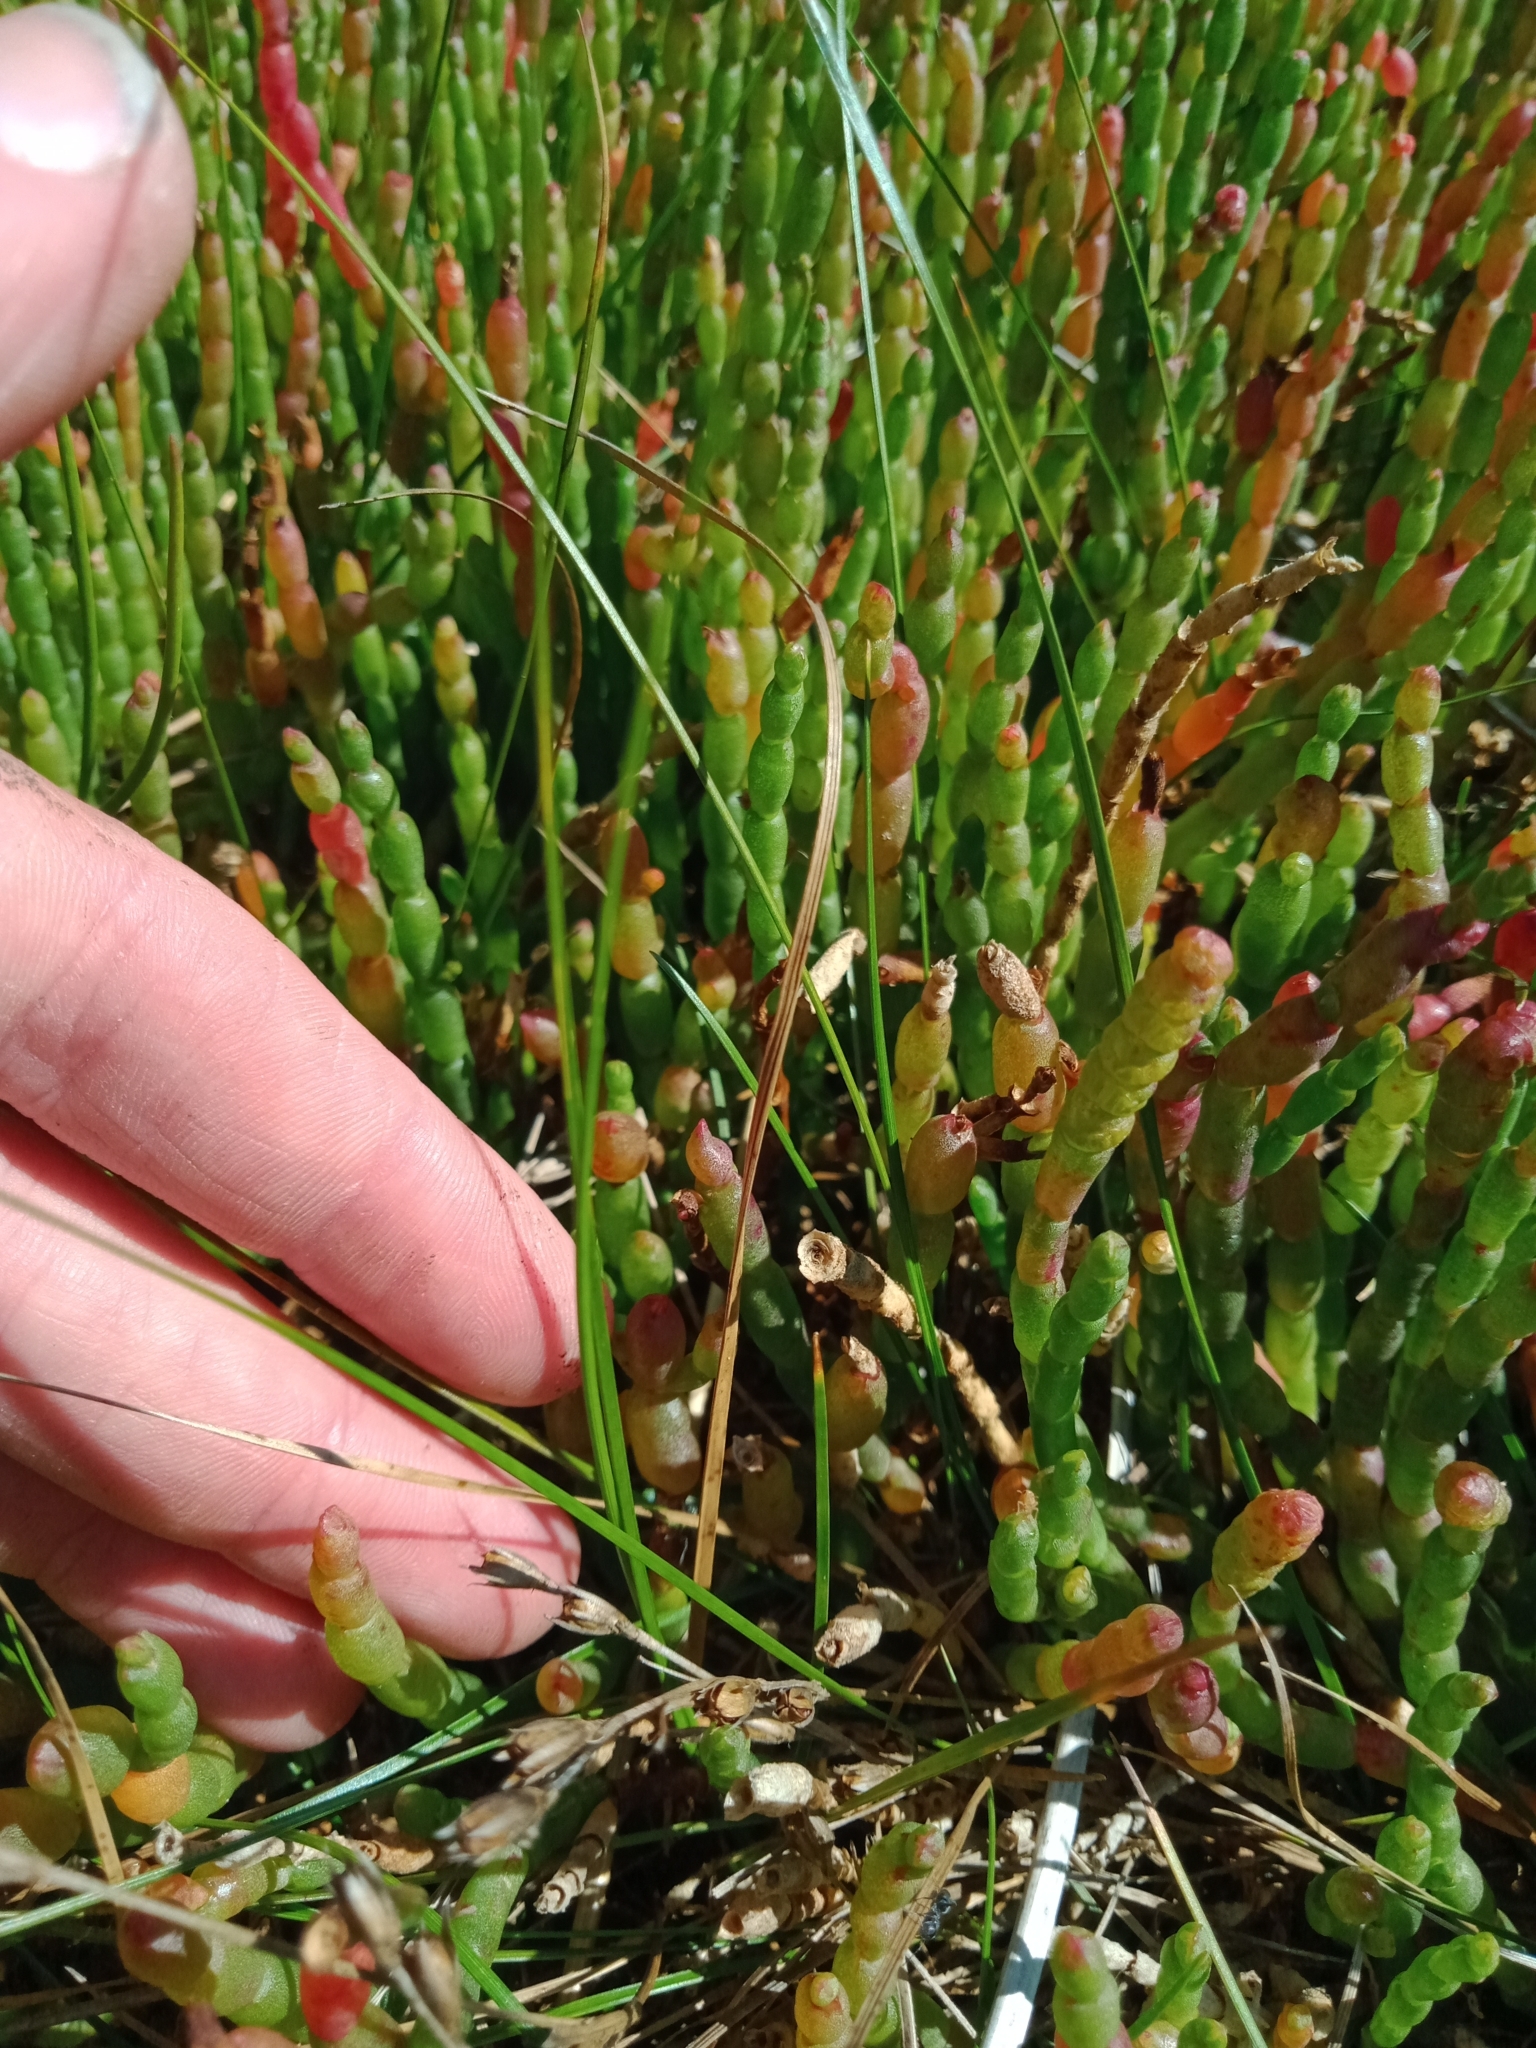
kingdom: Plantae
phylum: Tracheophyta
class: Liliopsida
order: Poales
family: Juncaceae
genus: Juncus
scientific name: Juncus revolutus
